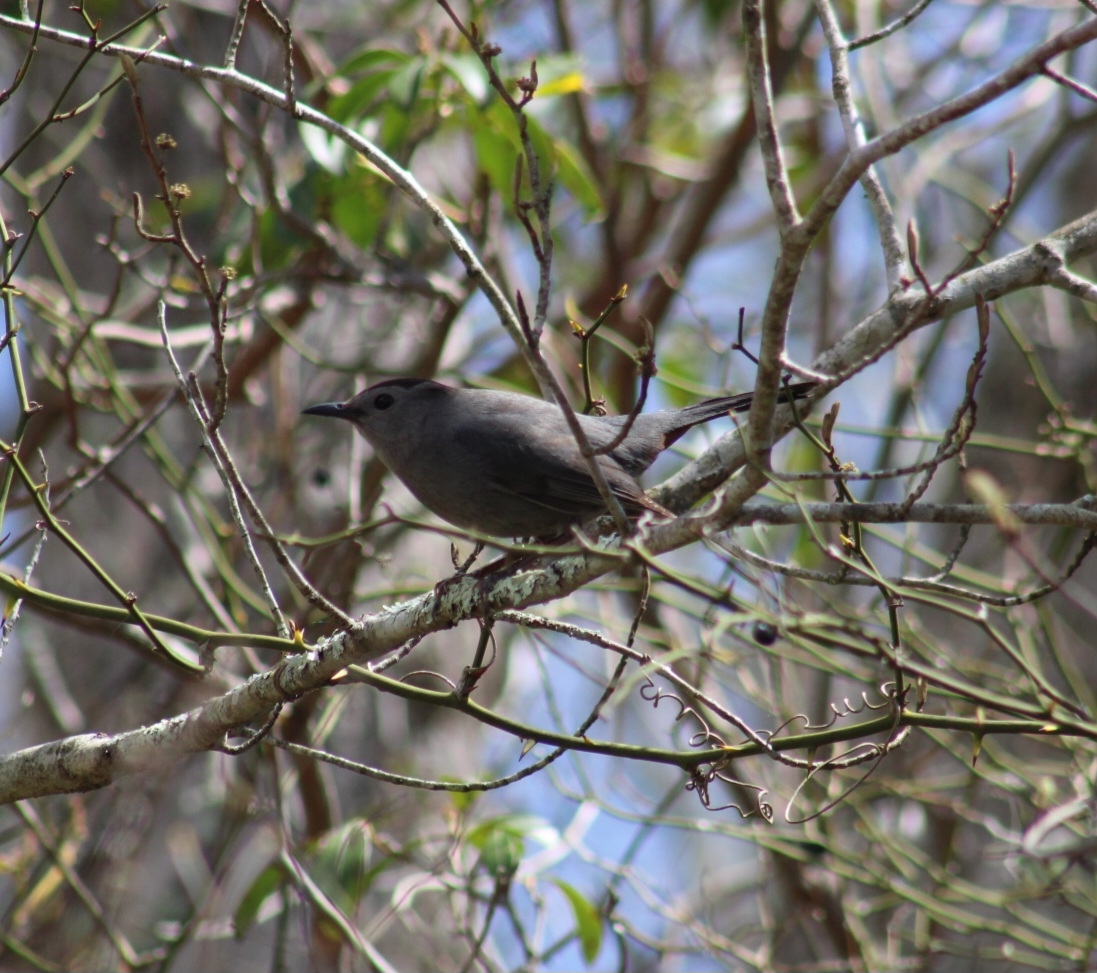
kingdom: Animalia
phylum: Chordata
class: Aves
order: Passeriformes
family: Mimidae
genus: Dumetella
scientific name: Dumetella carolinensis
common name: Gray catbird
